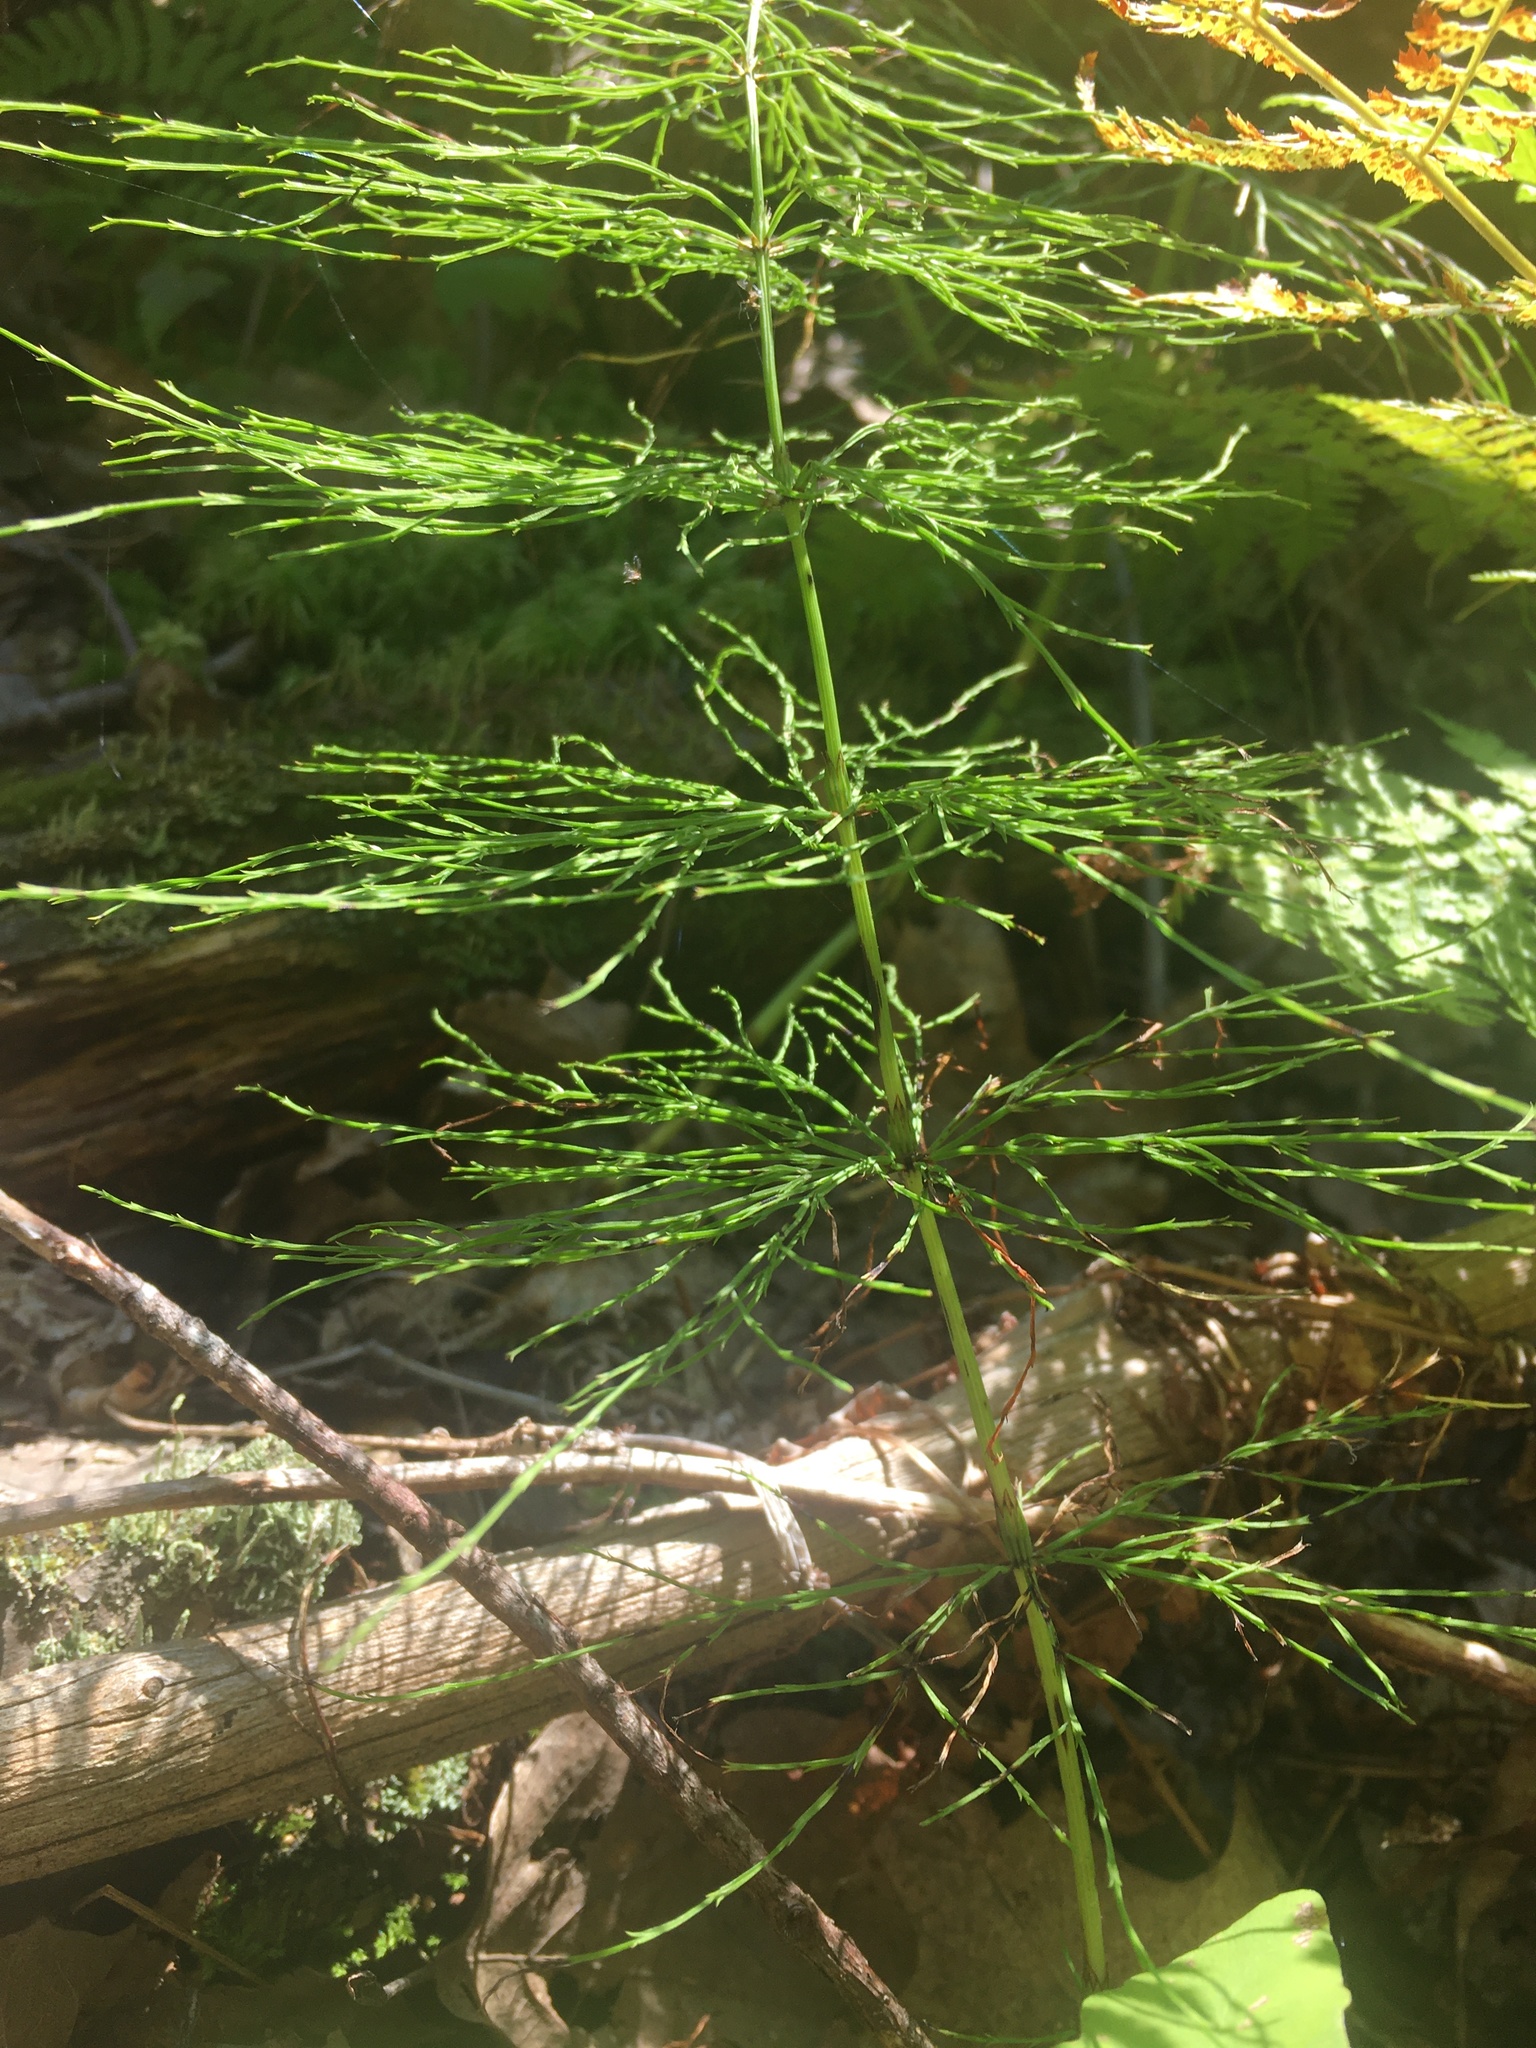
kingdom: Plantae
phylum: Tracheophyta
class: Polypodiopsida
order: Equisetales
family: Equisetaceae
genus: Equisetum
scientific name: Equisetum sylvaticum
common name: Wood horsetail
